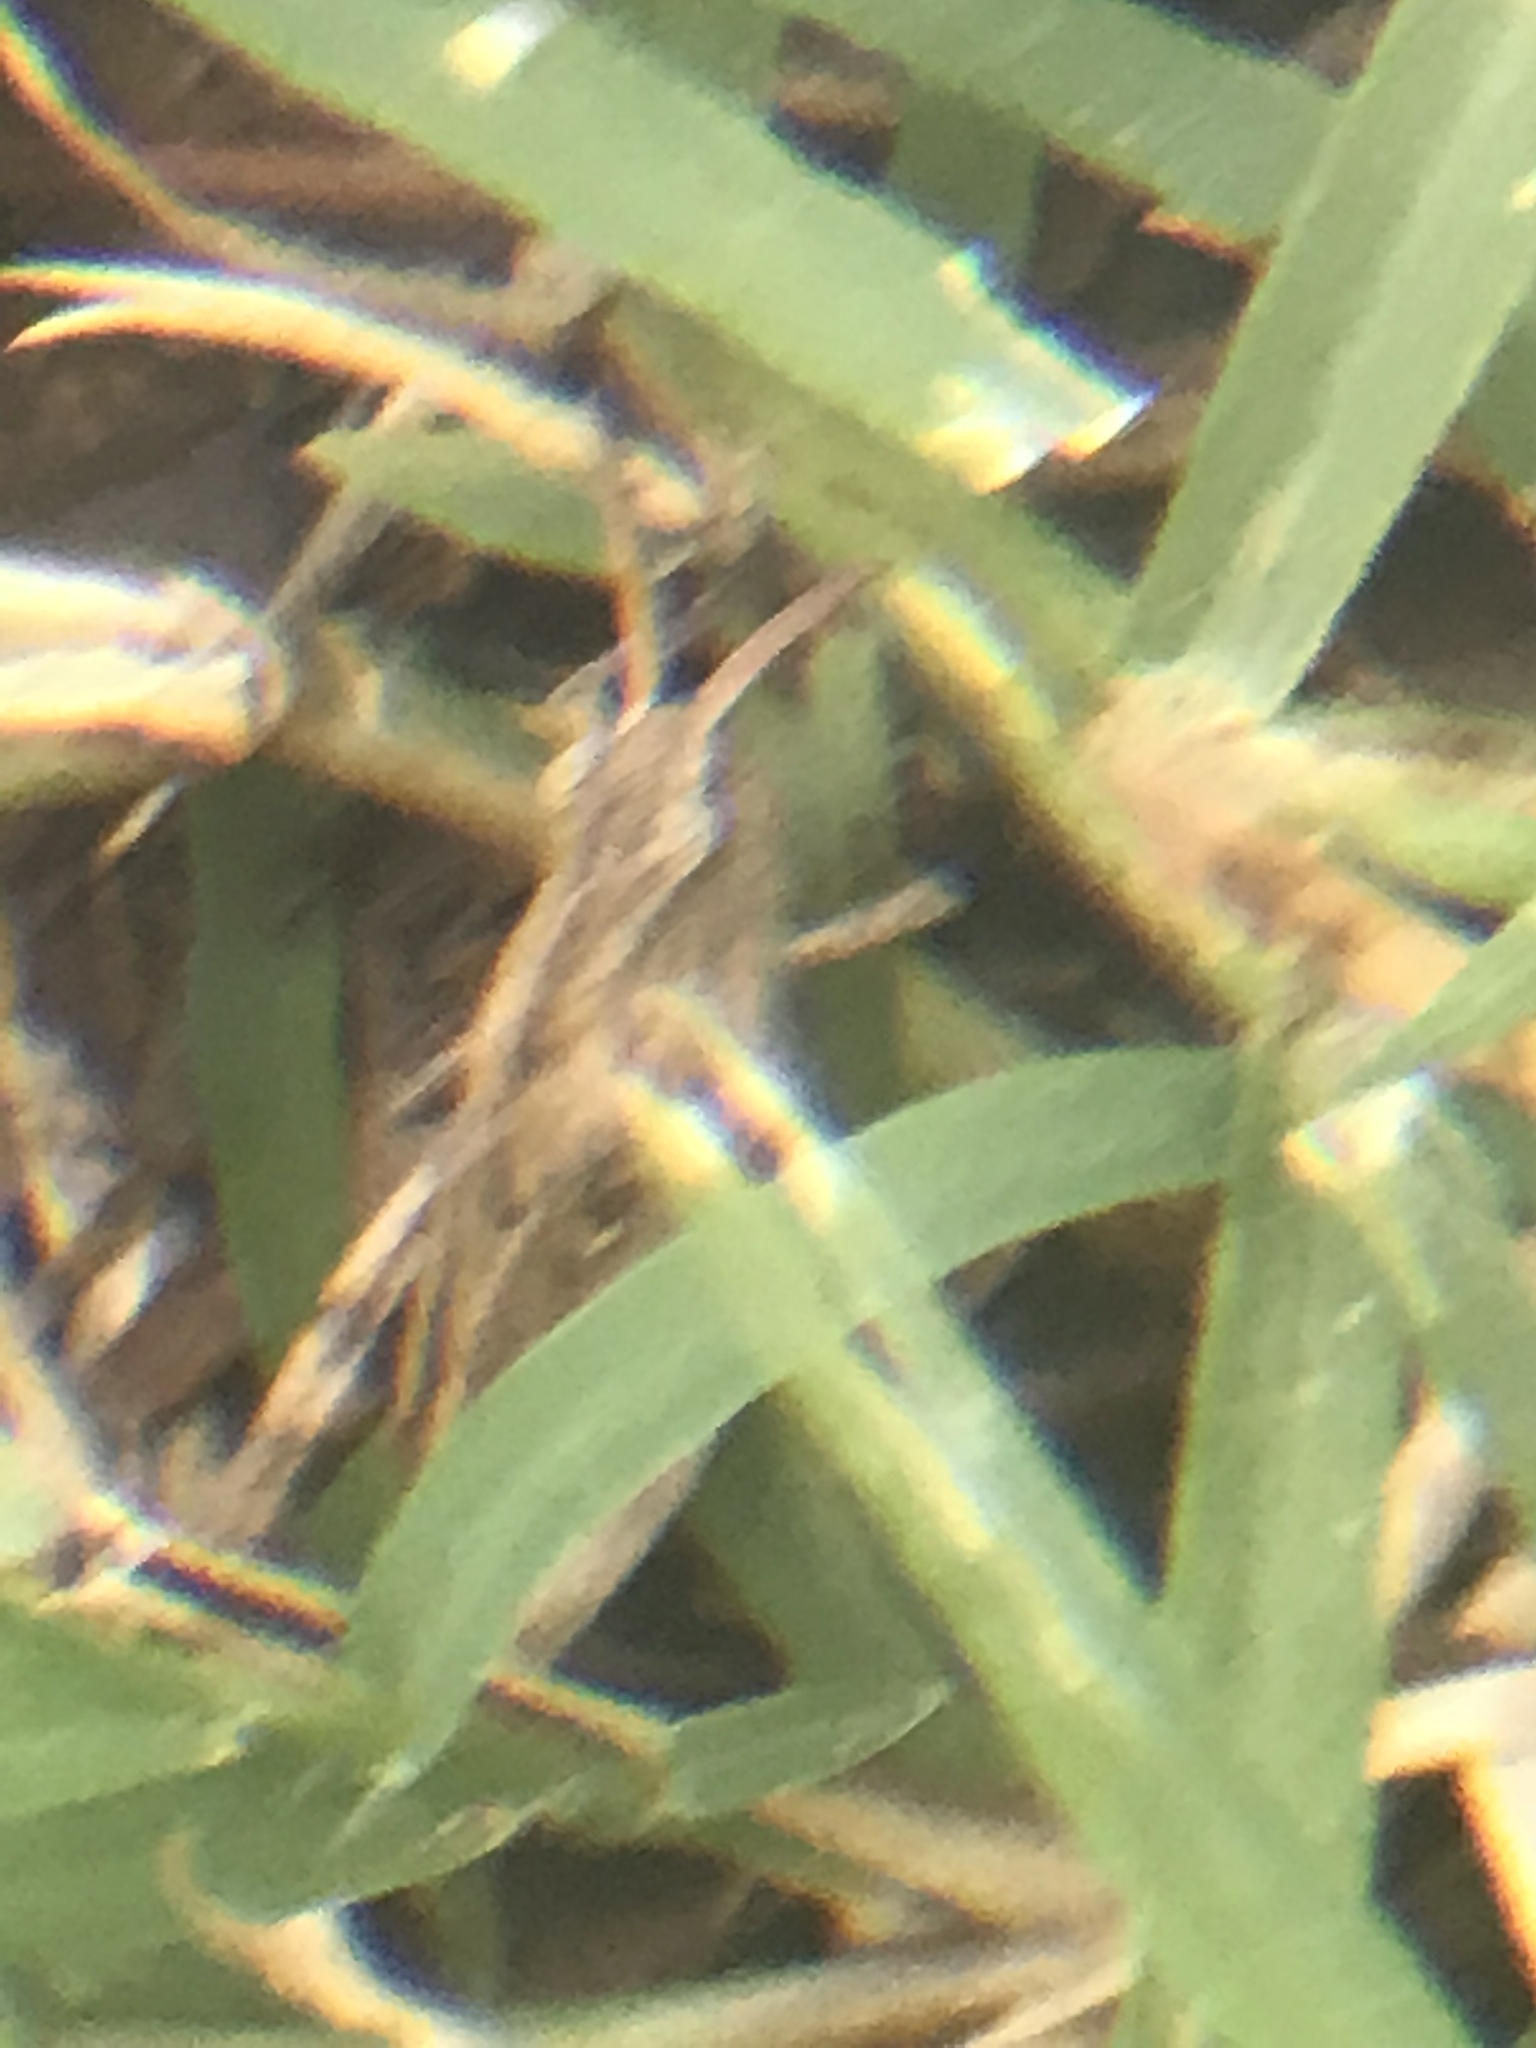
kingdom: Animalia
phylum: Arthropoda
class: Insecta
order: Orthoptera
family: Acrididae
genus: Chortophaga
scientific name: Chortophaga viridifasciata
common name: Green-striped grasshopper
